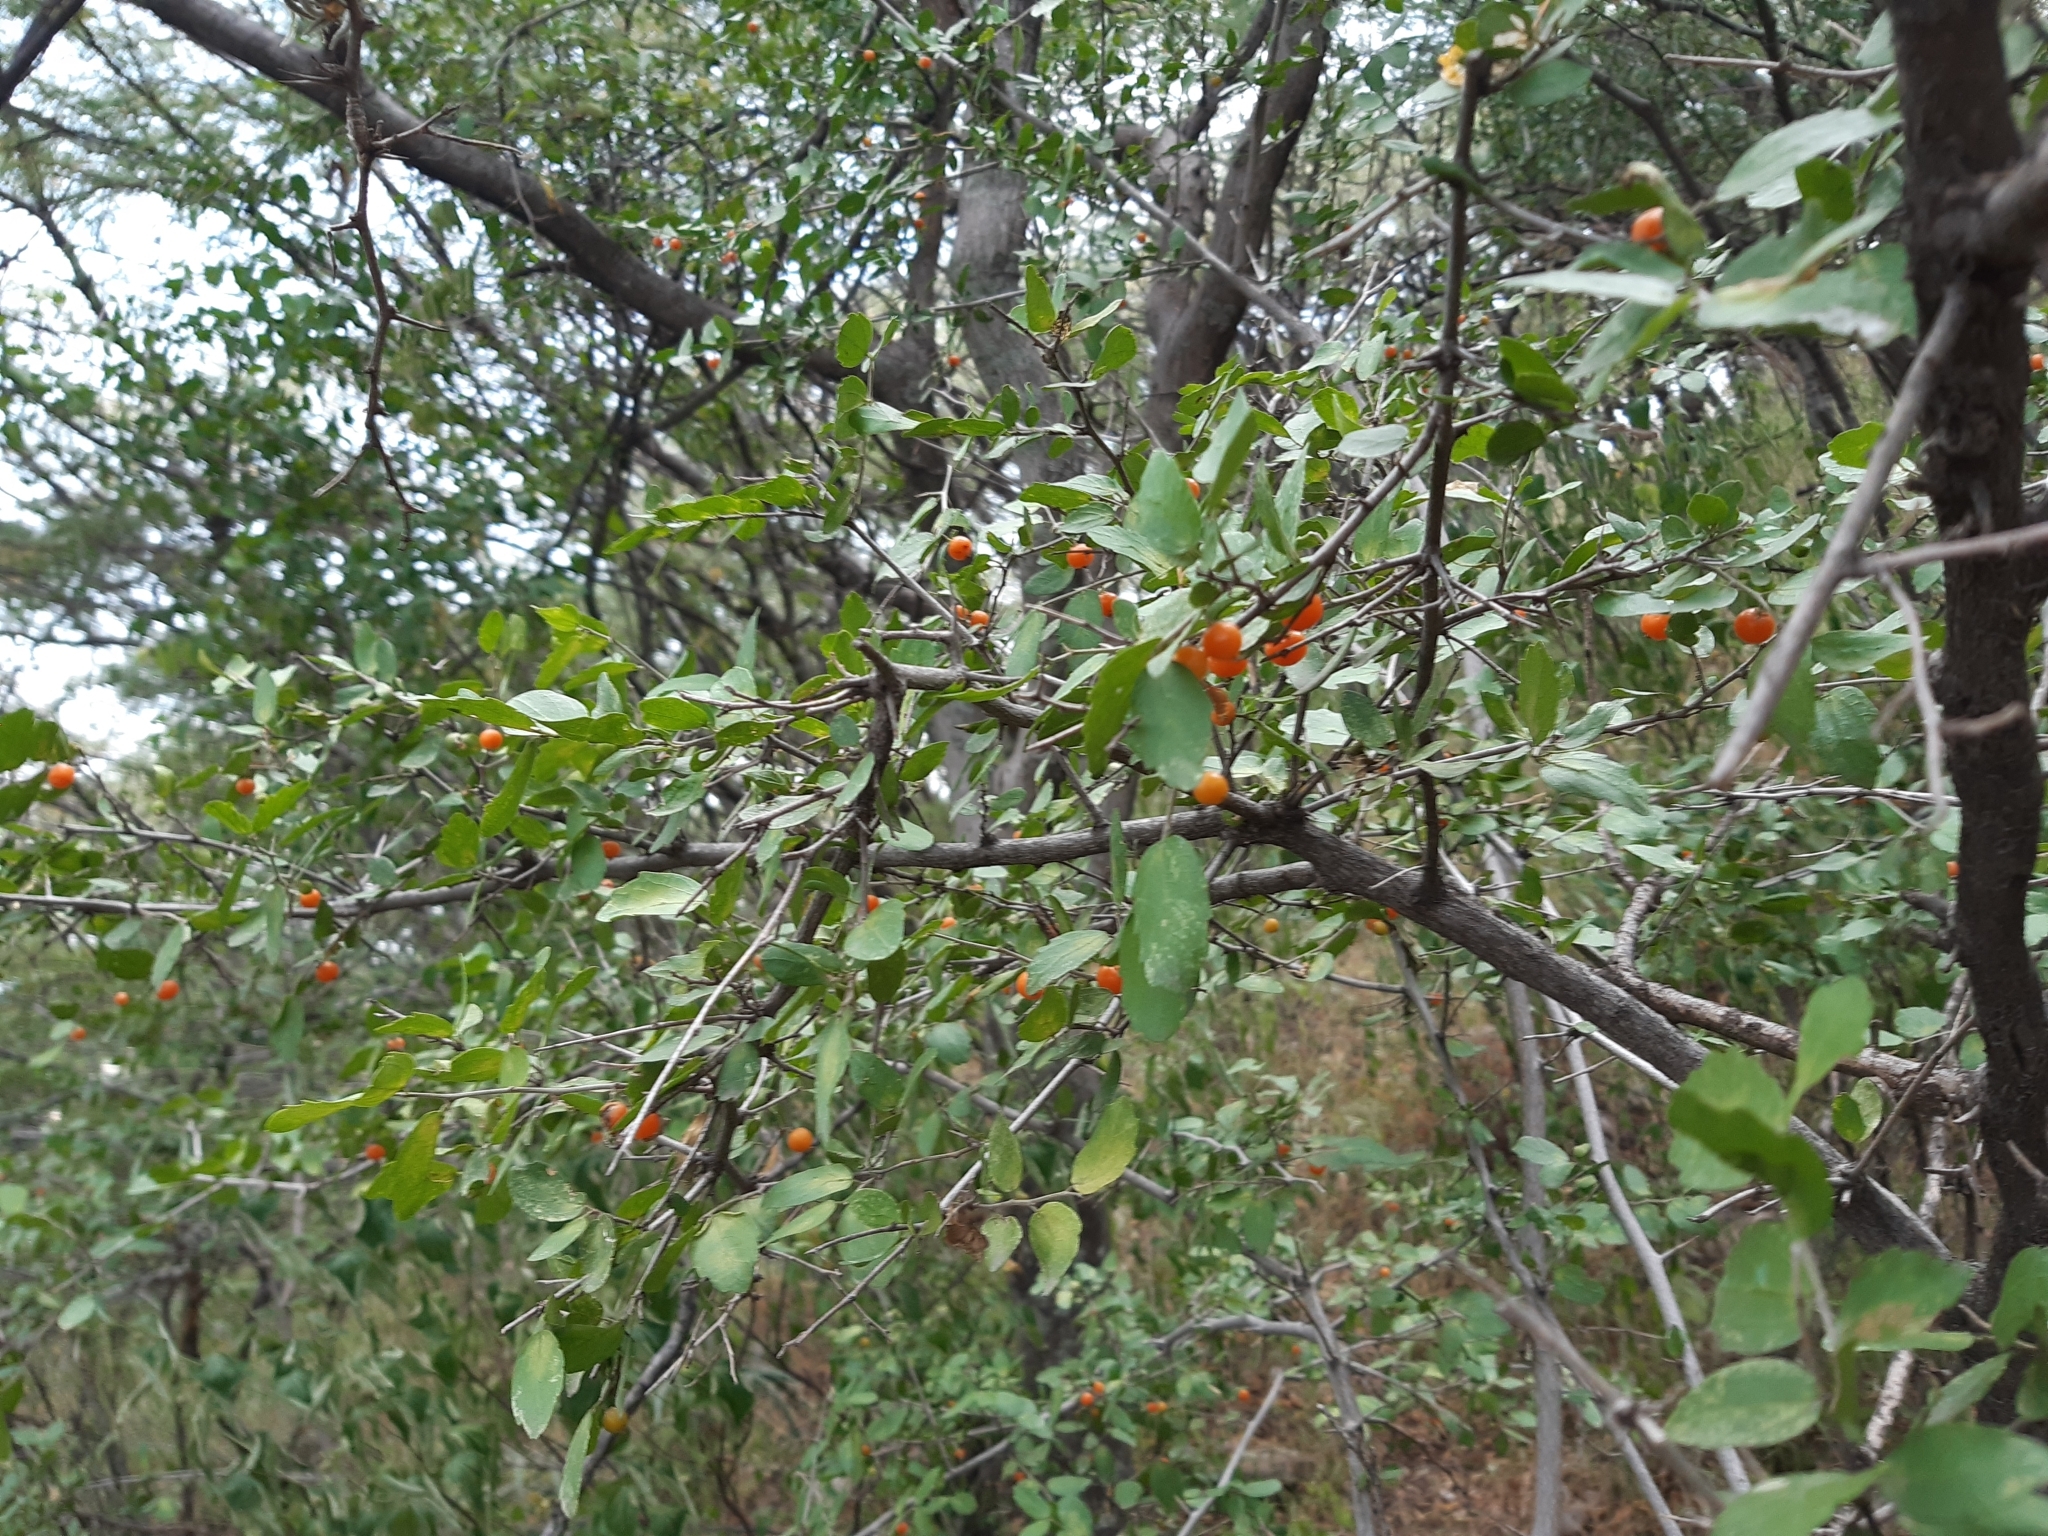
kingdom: Plantae
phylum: Tracheophyta
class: Magnoliopsida
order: Rosales
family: Cannabaceae
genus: Celtis
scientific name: Celtis pallida
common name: Desert hackberry
